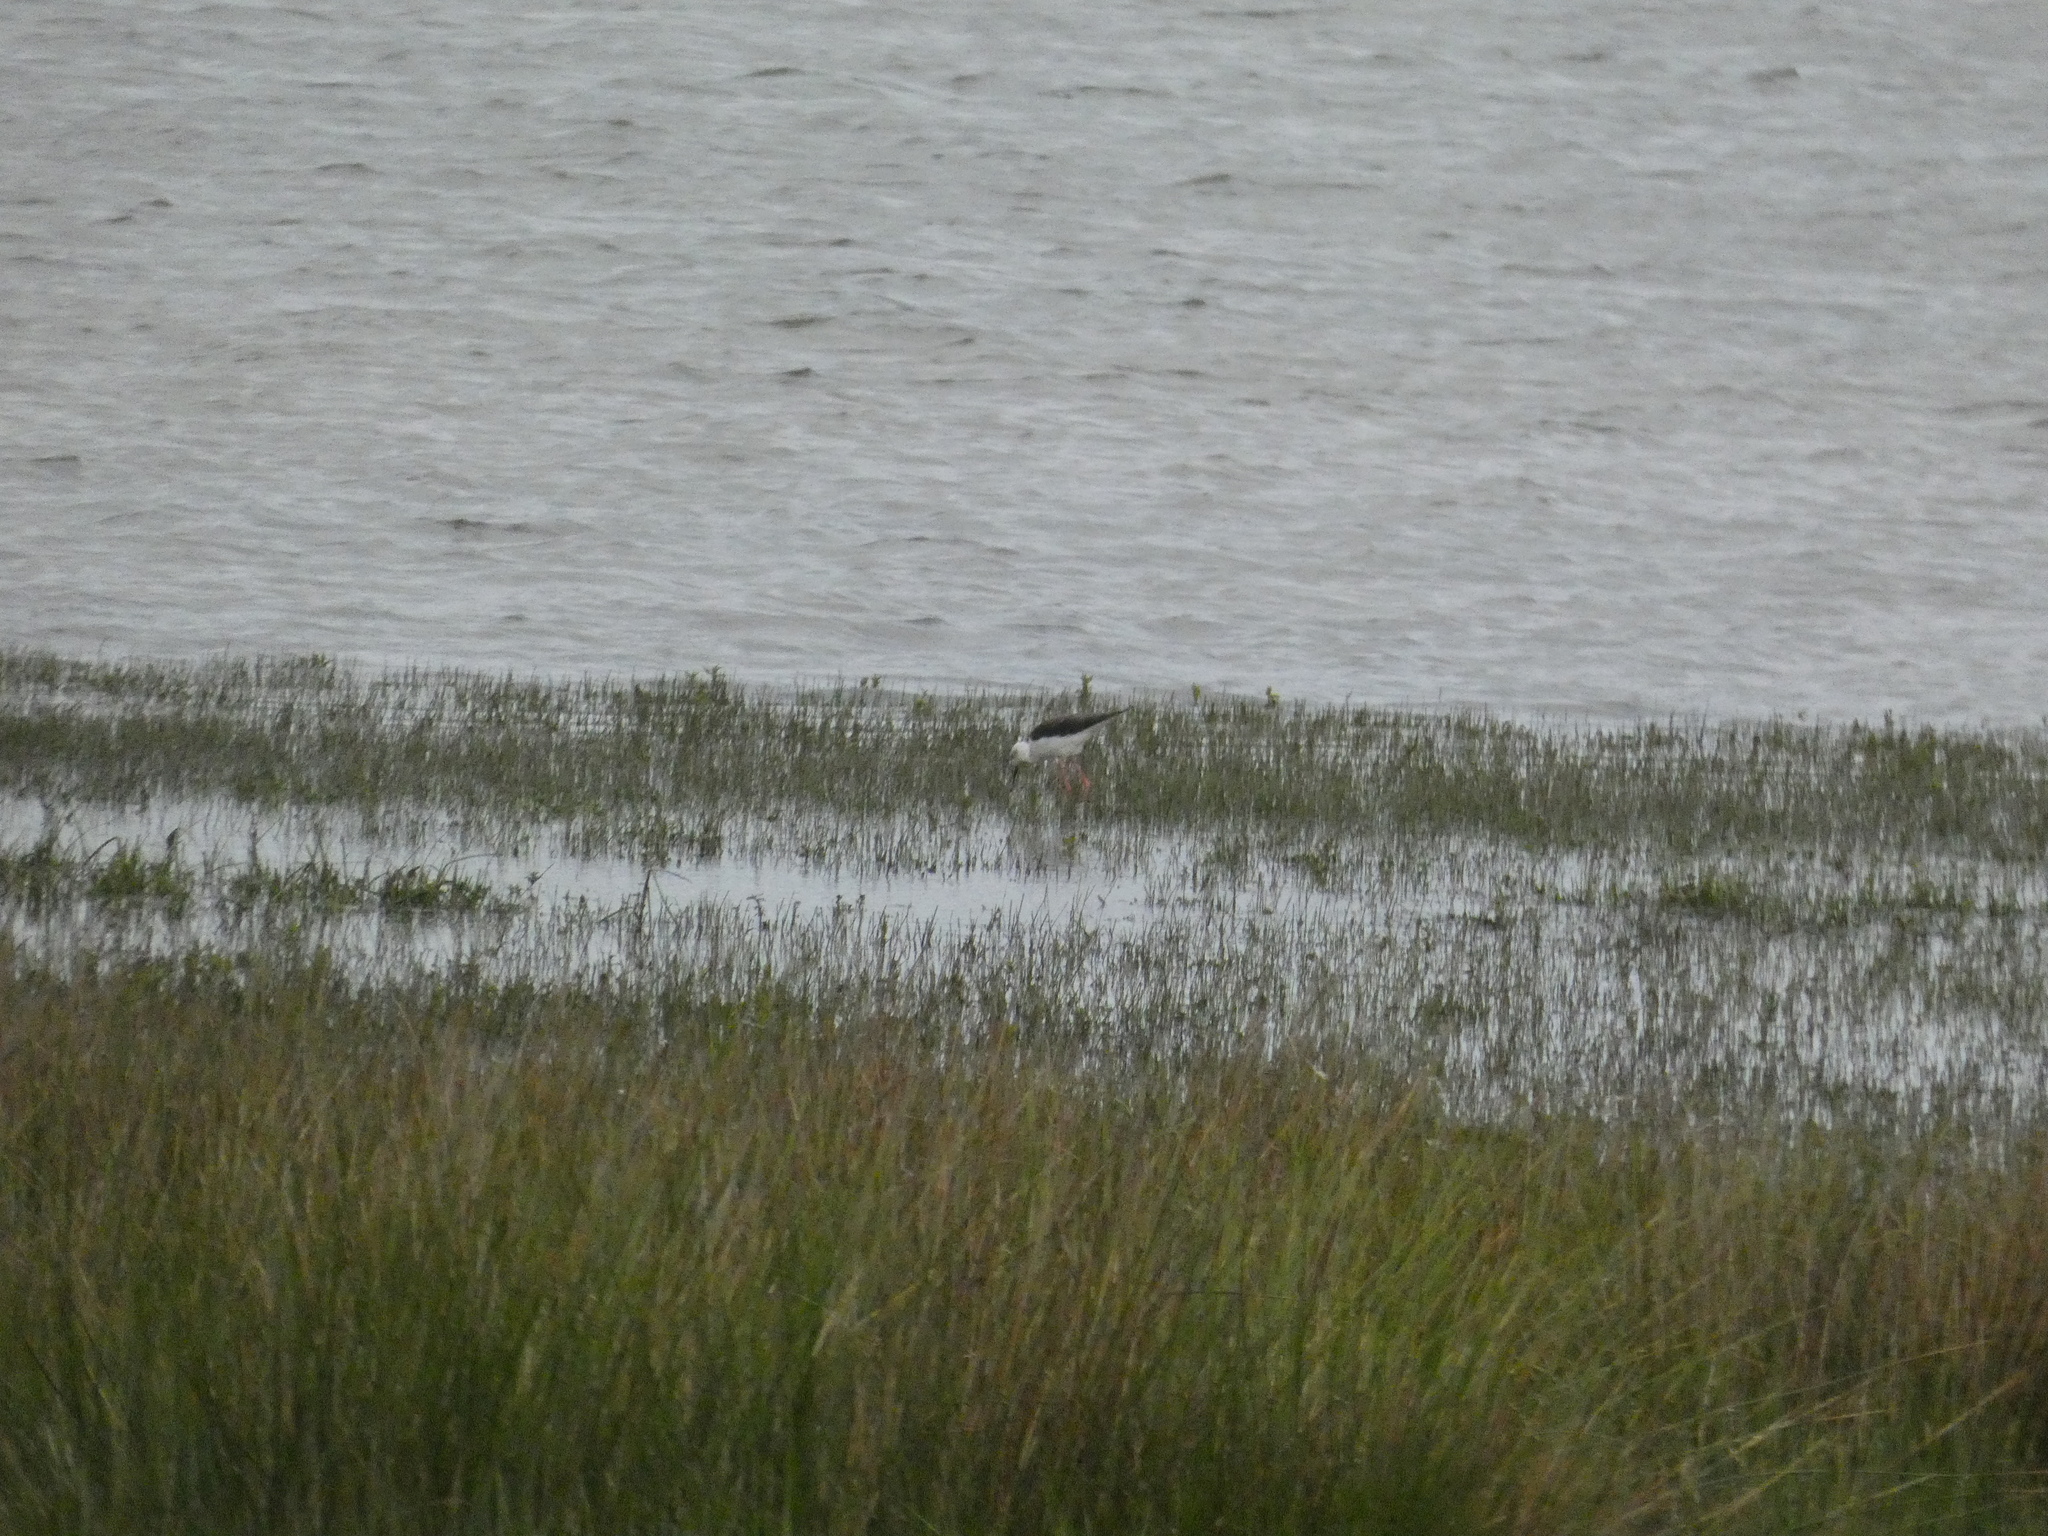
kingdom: Animalia
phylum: Chordata
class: Aves
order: Charadriiformes
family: Recurvirostridae
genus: Himantopus
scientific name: Himantopus himantopus
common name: Black-winged stilt
